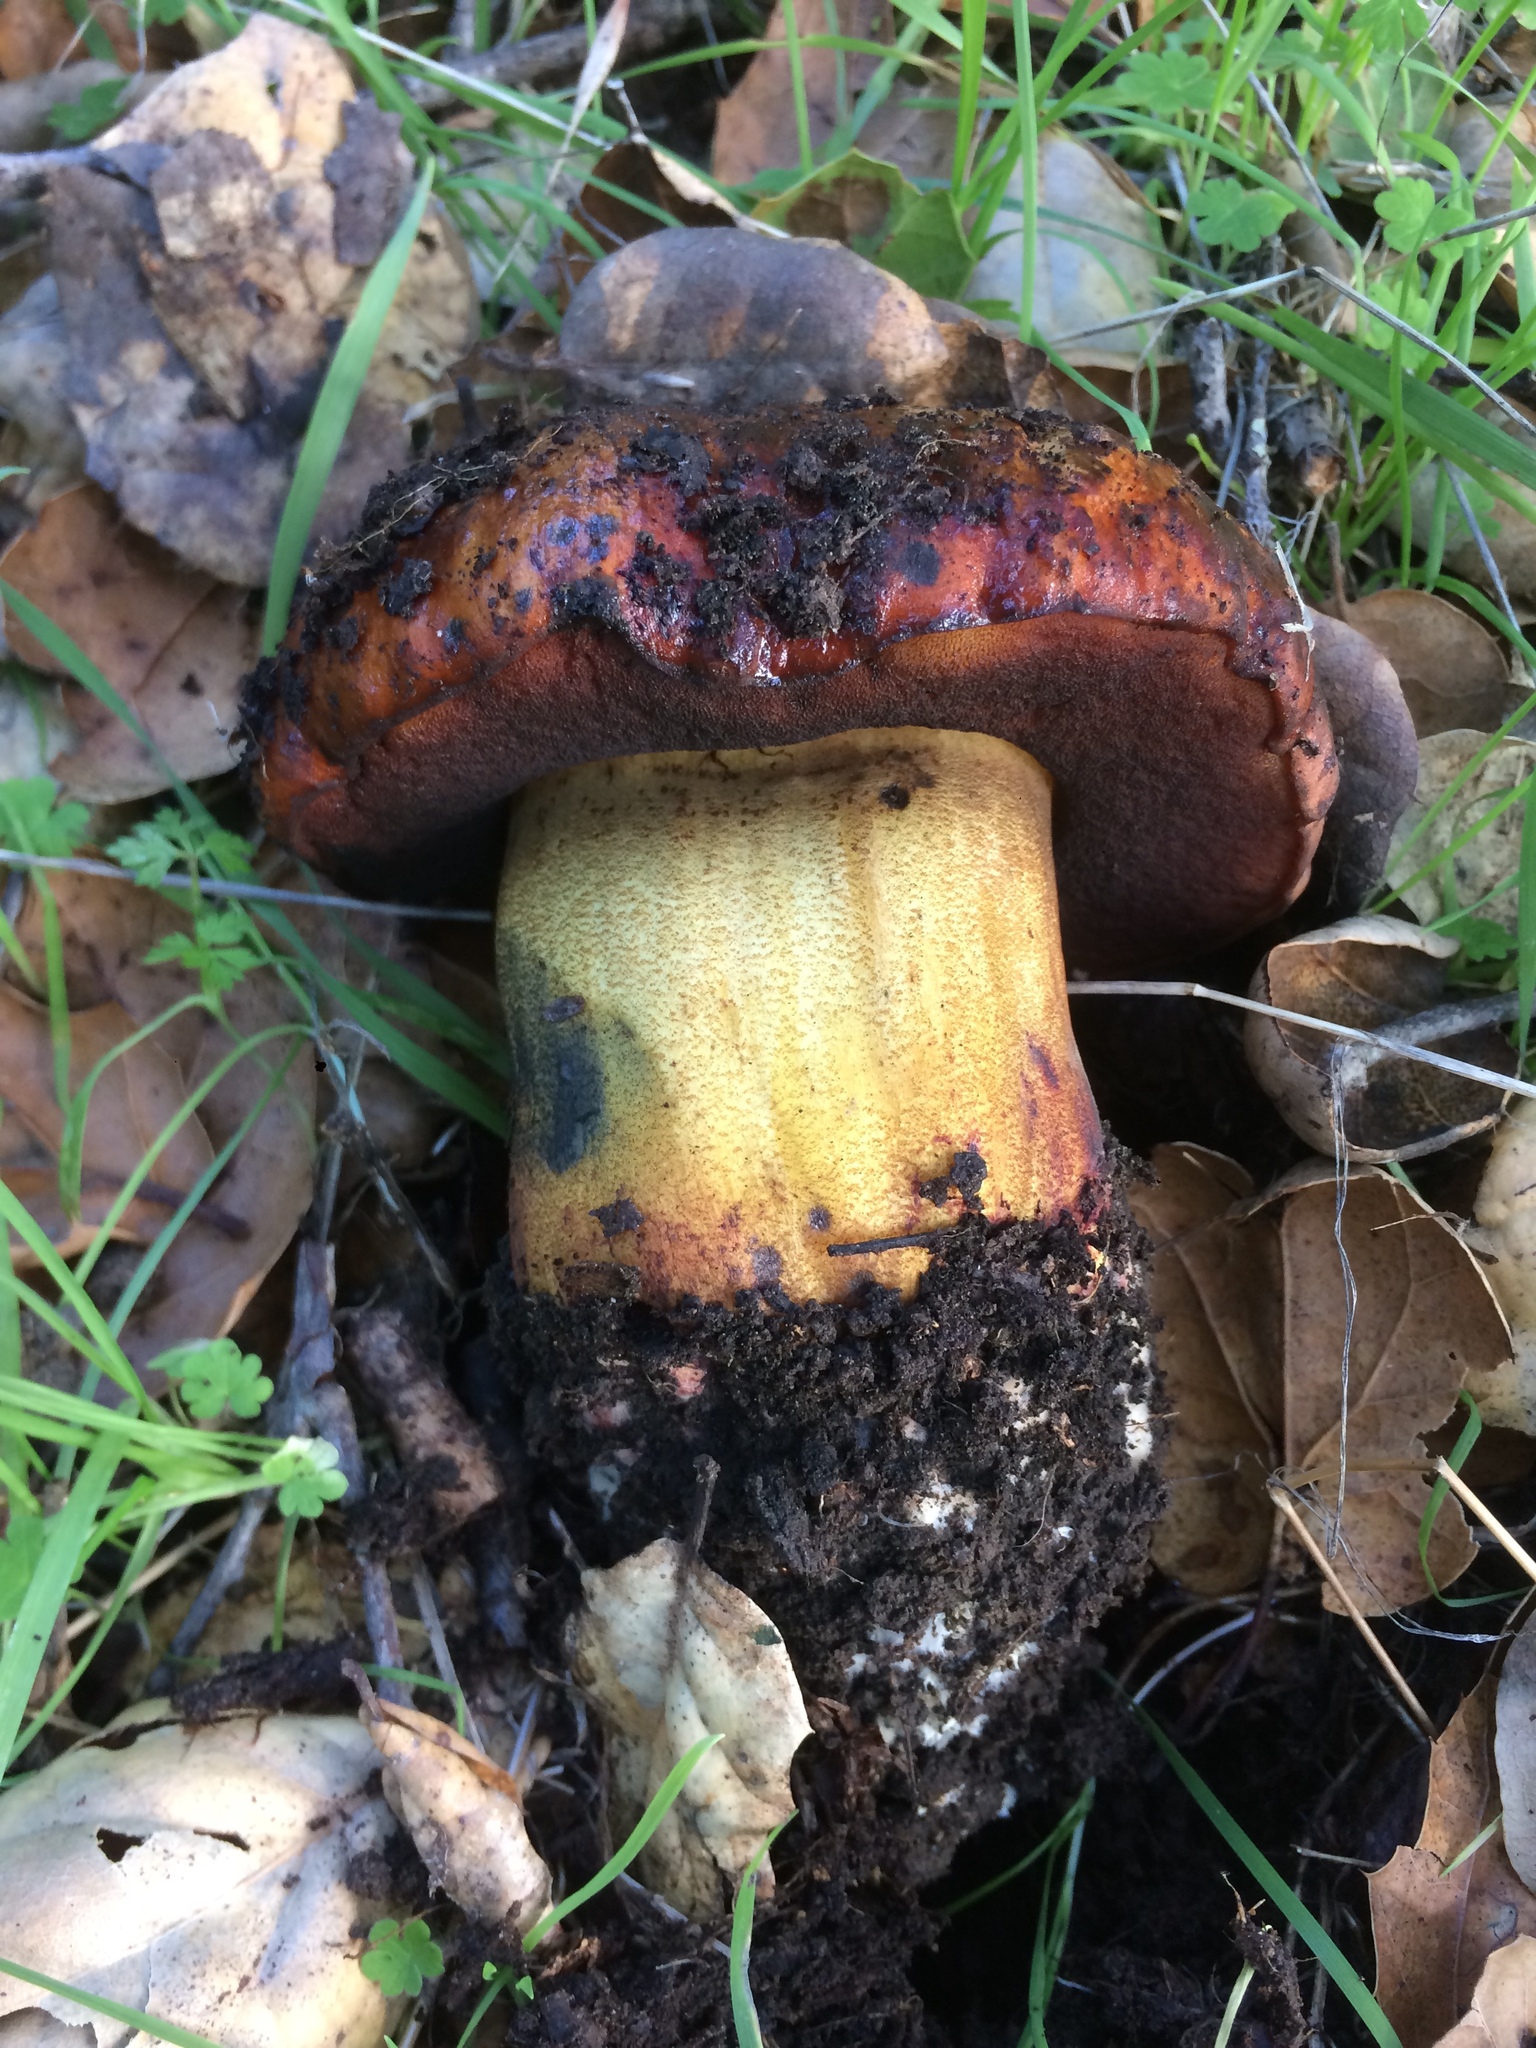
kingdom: Fungi
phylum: Basidiomycota
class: Agaricomycetes
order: Boletales
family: Boletaceae
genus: Suillellus
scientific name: Suillellus amygdalinus
